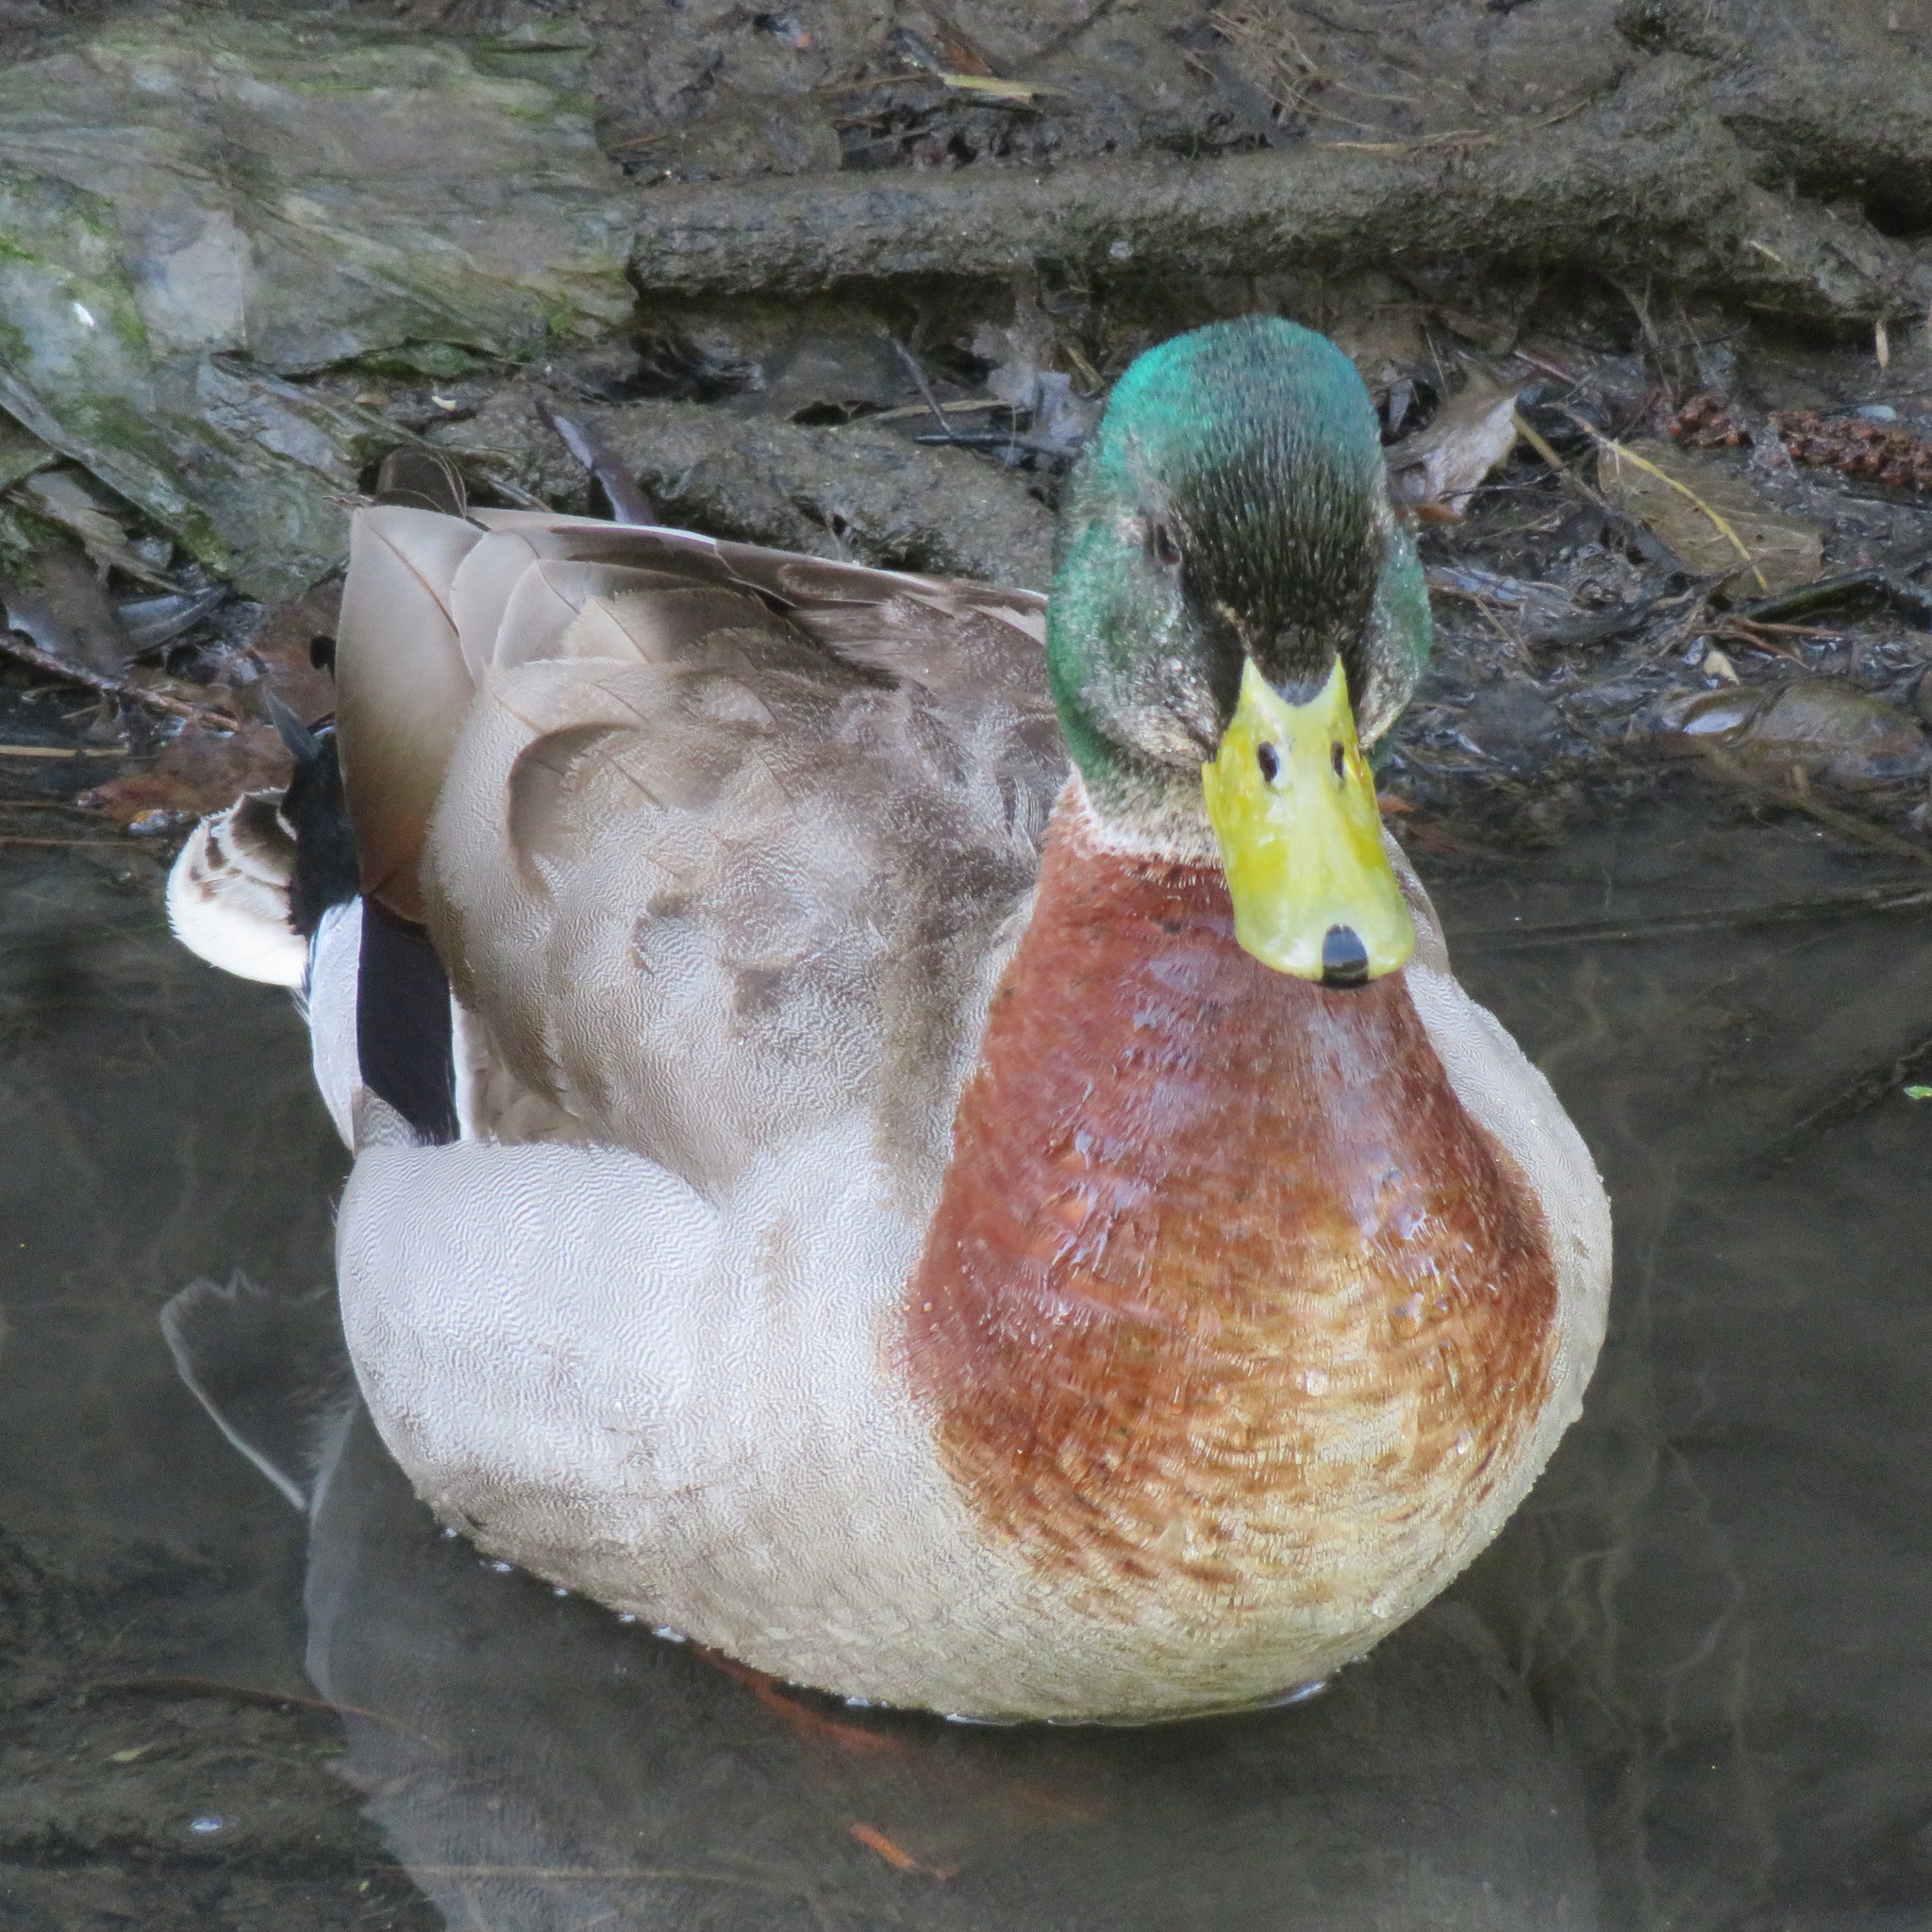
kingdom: Animalia
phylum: Chordata
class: Aves
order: Anseriformes
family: Anatidae
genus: Anas
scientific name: Anas platyrhynchos
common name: Mallard
